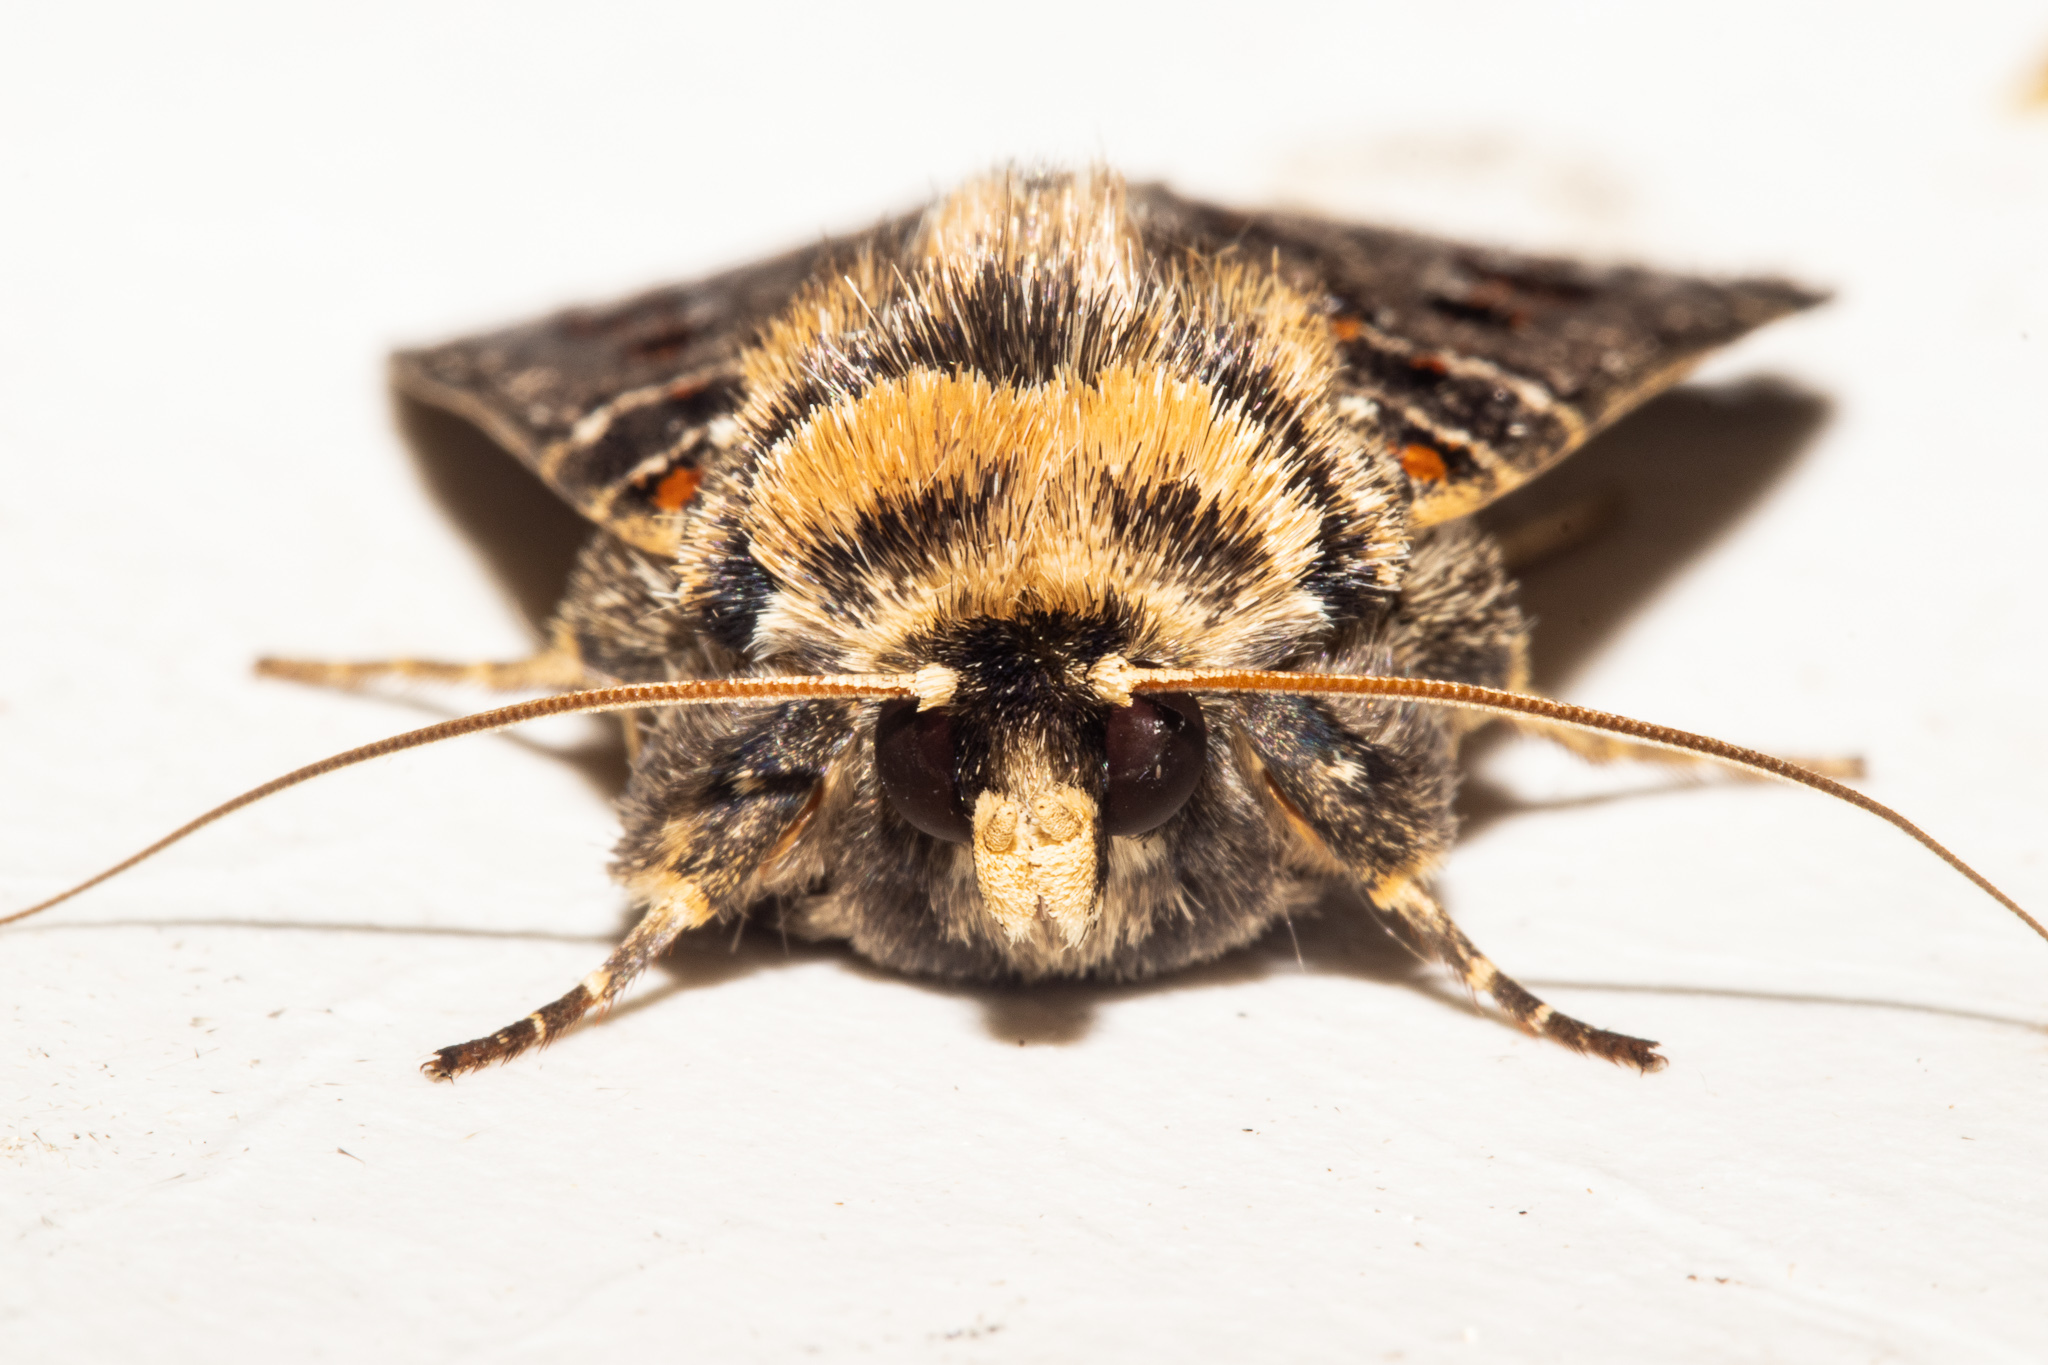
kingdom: Animalia
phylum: Arthropoda
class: Insecta
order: Lepidoptera
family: Noctuidae
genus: Proteuxoa
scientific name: Proteuxoa sanguinipuncta
